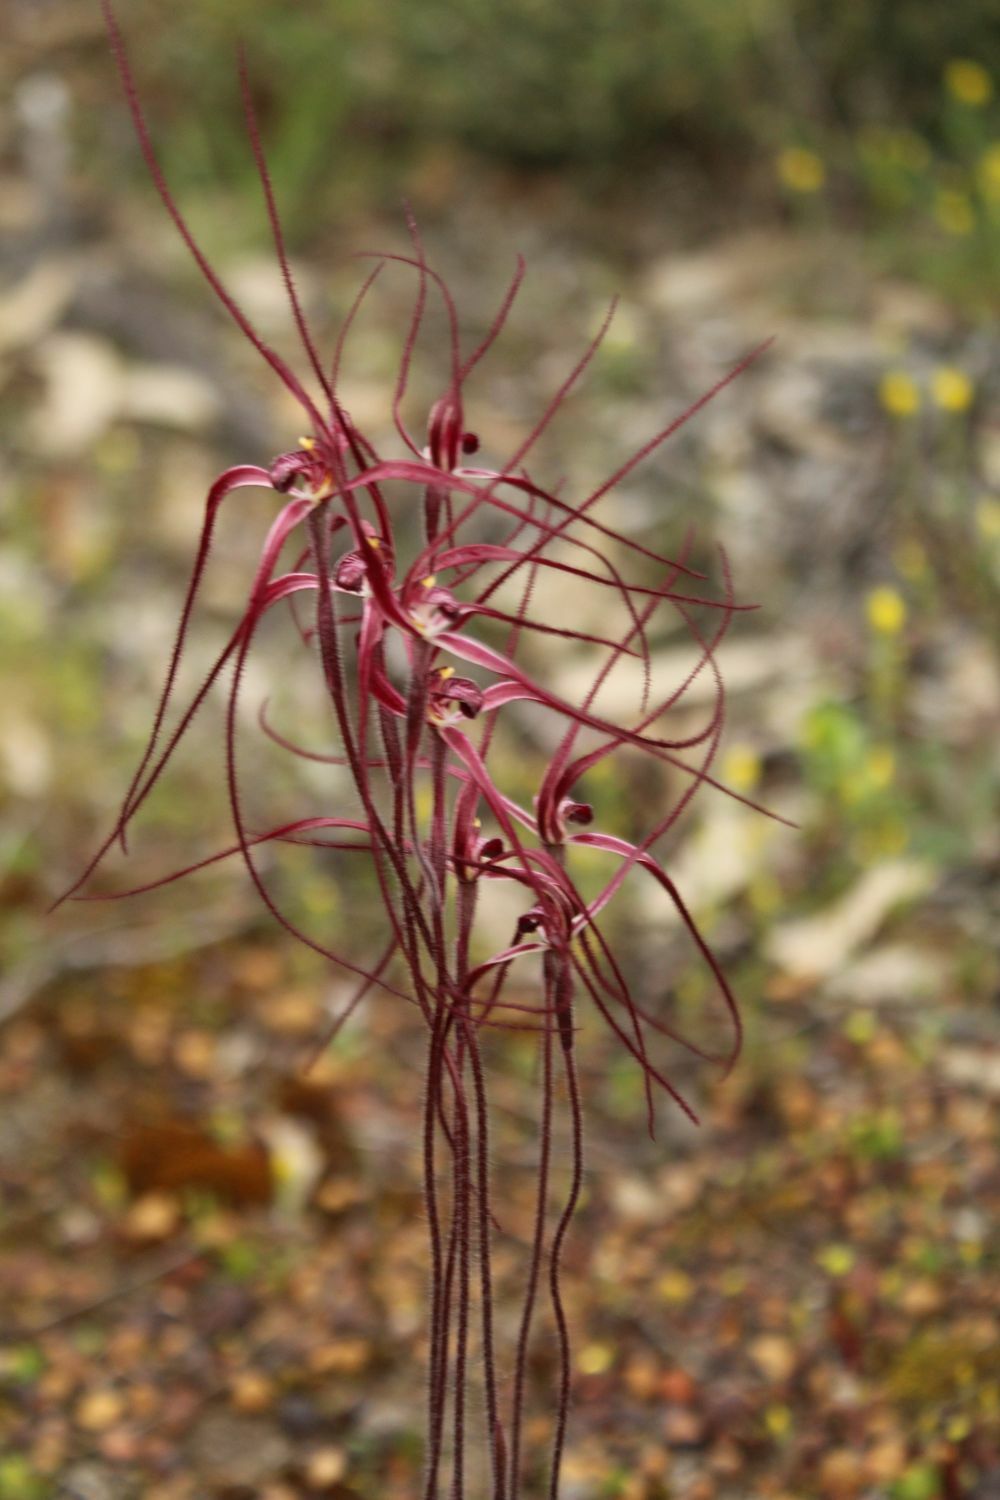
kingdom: Plantae
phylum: Tracheophyta
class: Liliopsida
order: Asparagales
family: Orchidaceae
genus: Caladenia
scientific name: Caladenia erythronema
